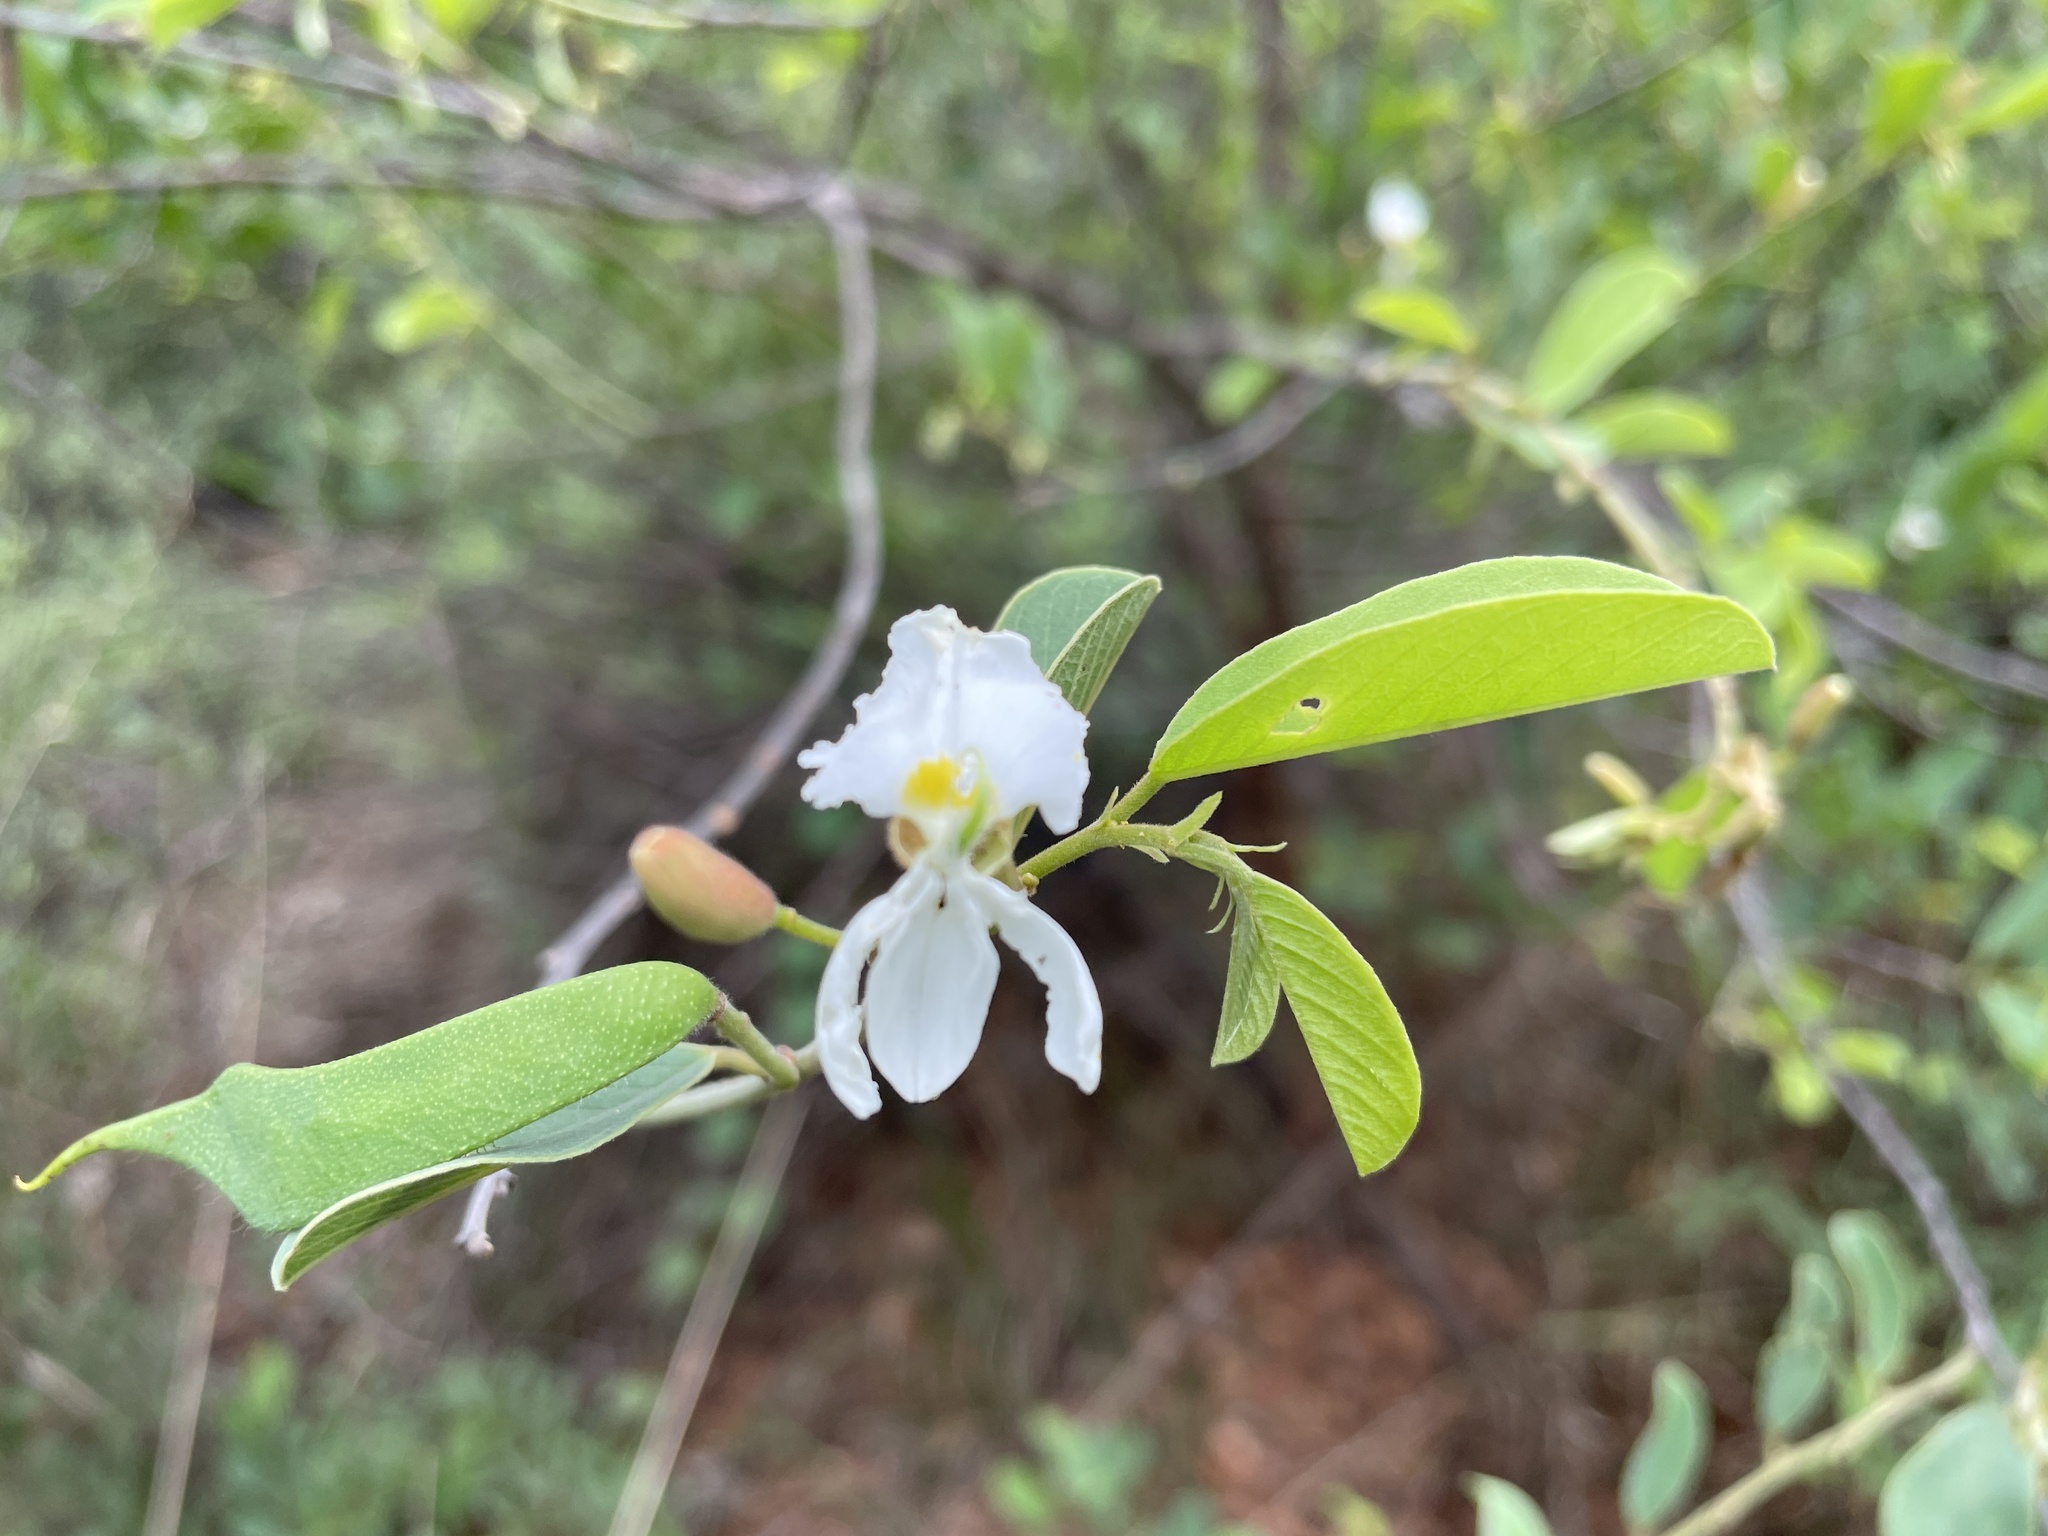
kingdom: Plantae
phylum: Tracheophyta
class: Magnoliopsida
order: Fabales
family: Fabaceae
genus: Baphia
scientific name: Baphia massaiensis
